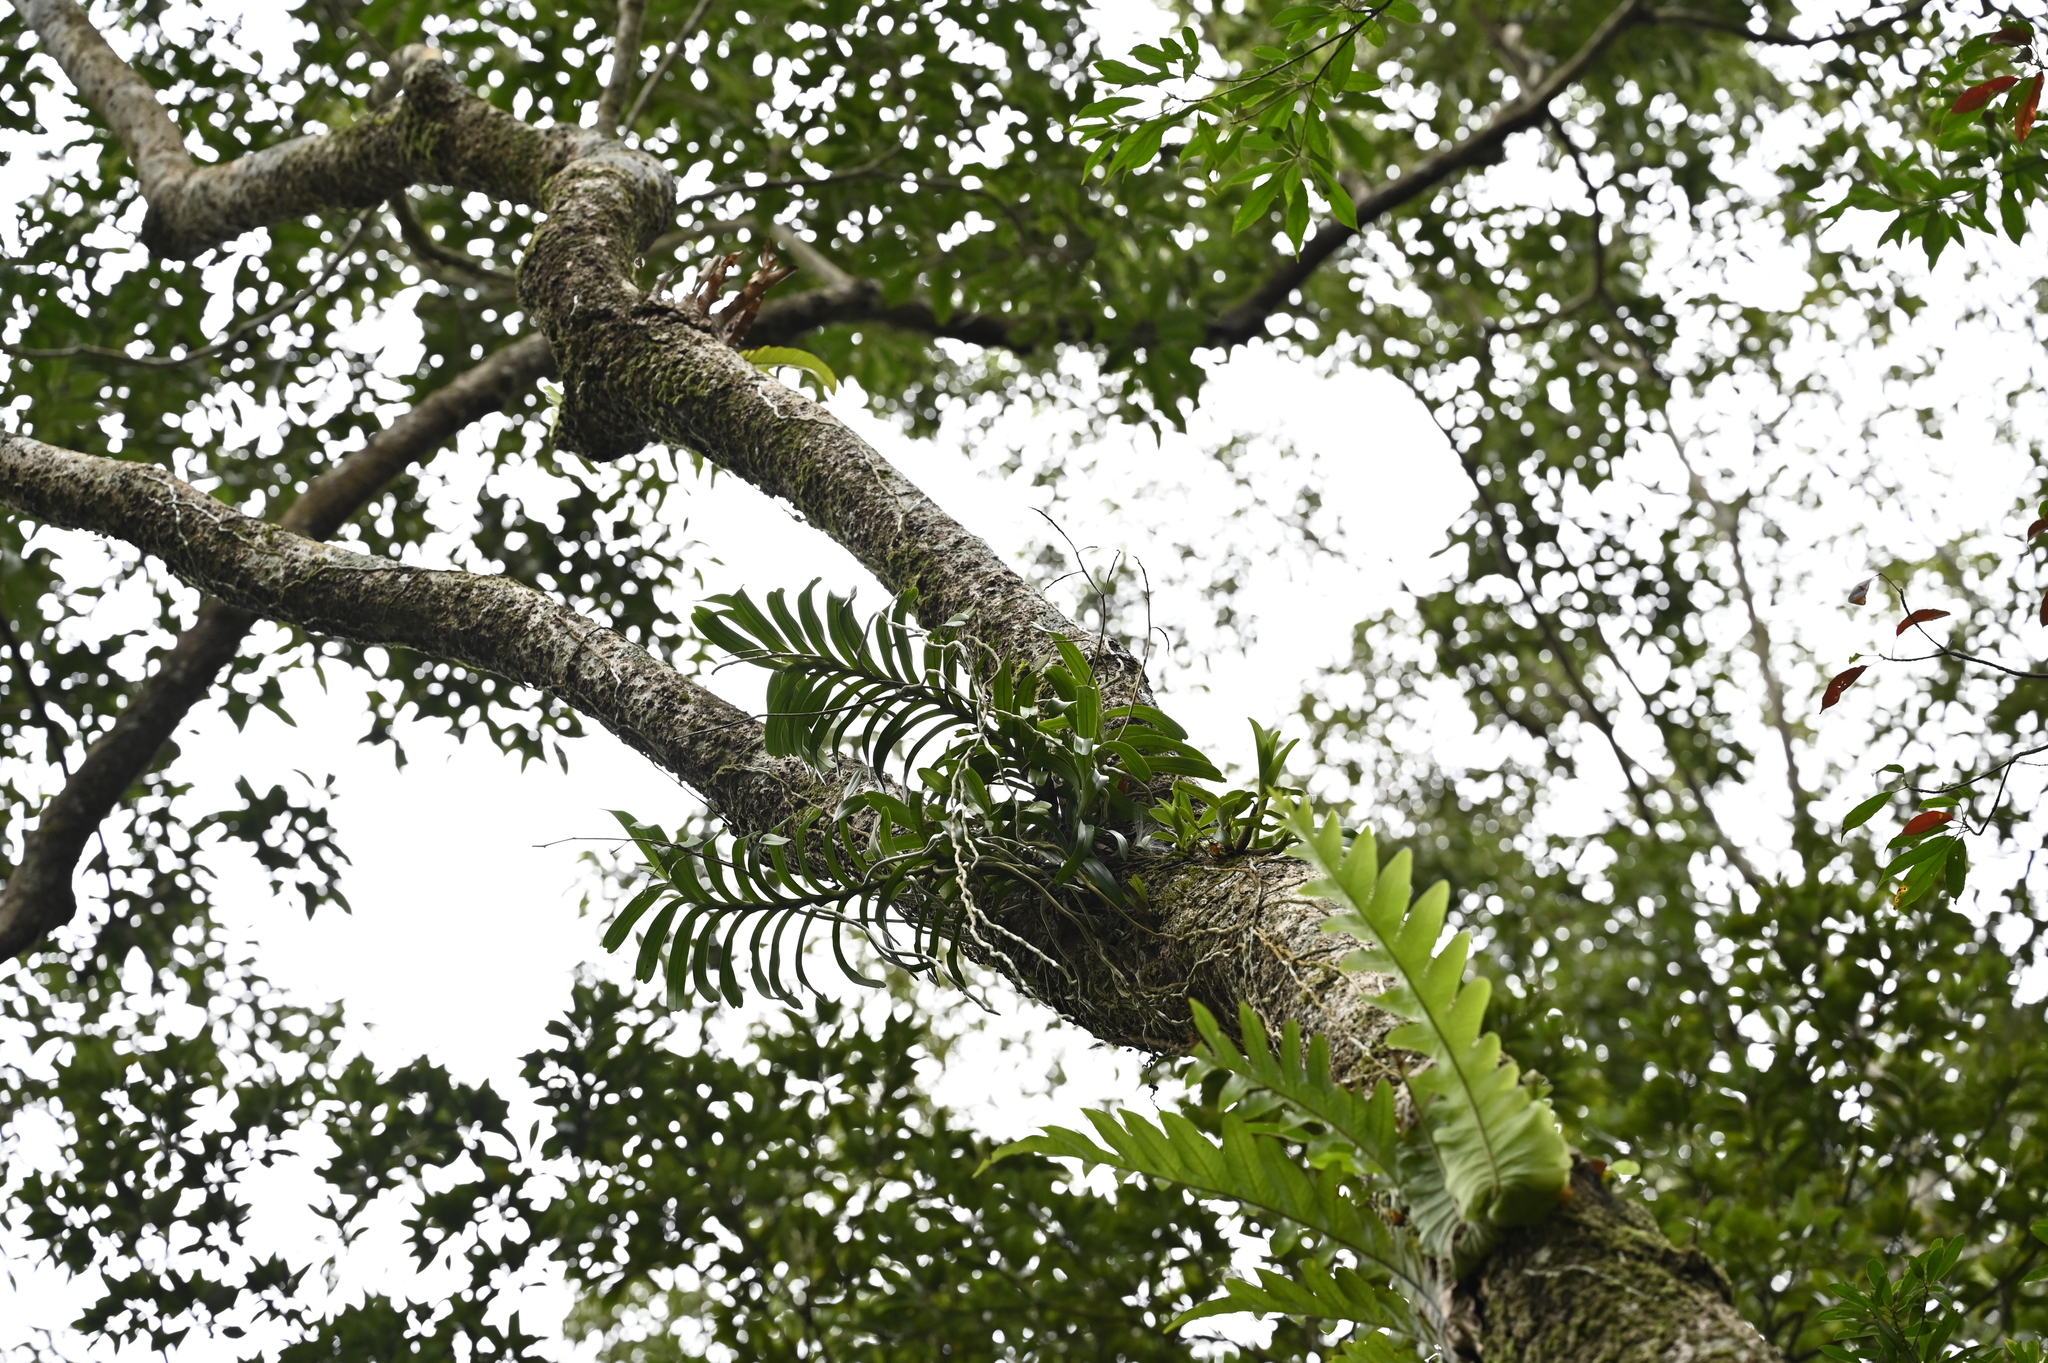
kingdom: Plantae
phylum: Tracheophyta
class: Liliopsida
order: Asparagales
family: Orchidaceae
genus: Cleisostoma
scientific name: Cleisostoma paniculatum
